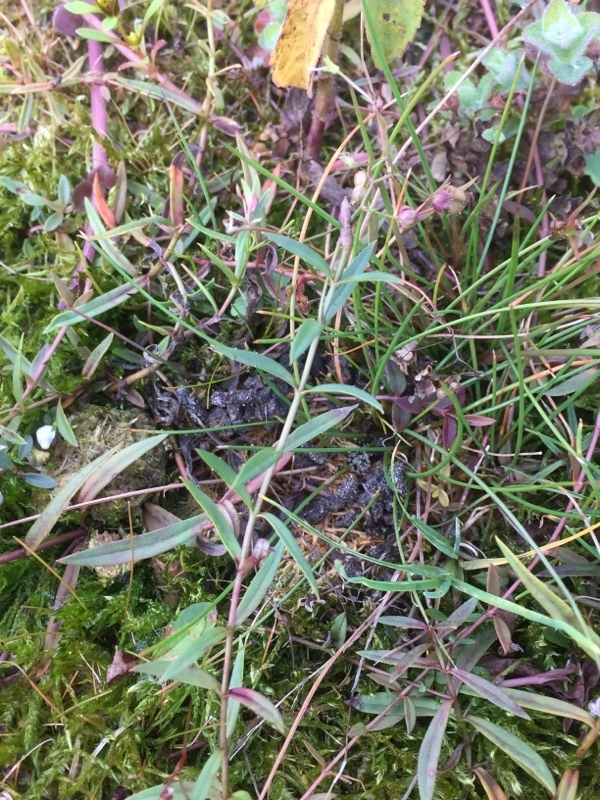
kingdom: Plantae
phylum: Tracheophyta
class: Magnoliopsida
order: Lamiales
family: Plantaginaceae
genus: Veronica
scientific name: Veronica scutellata
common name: Marsh speedwell
